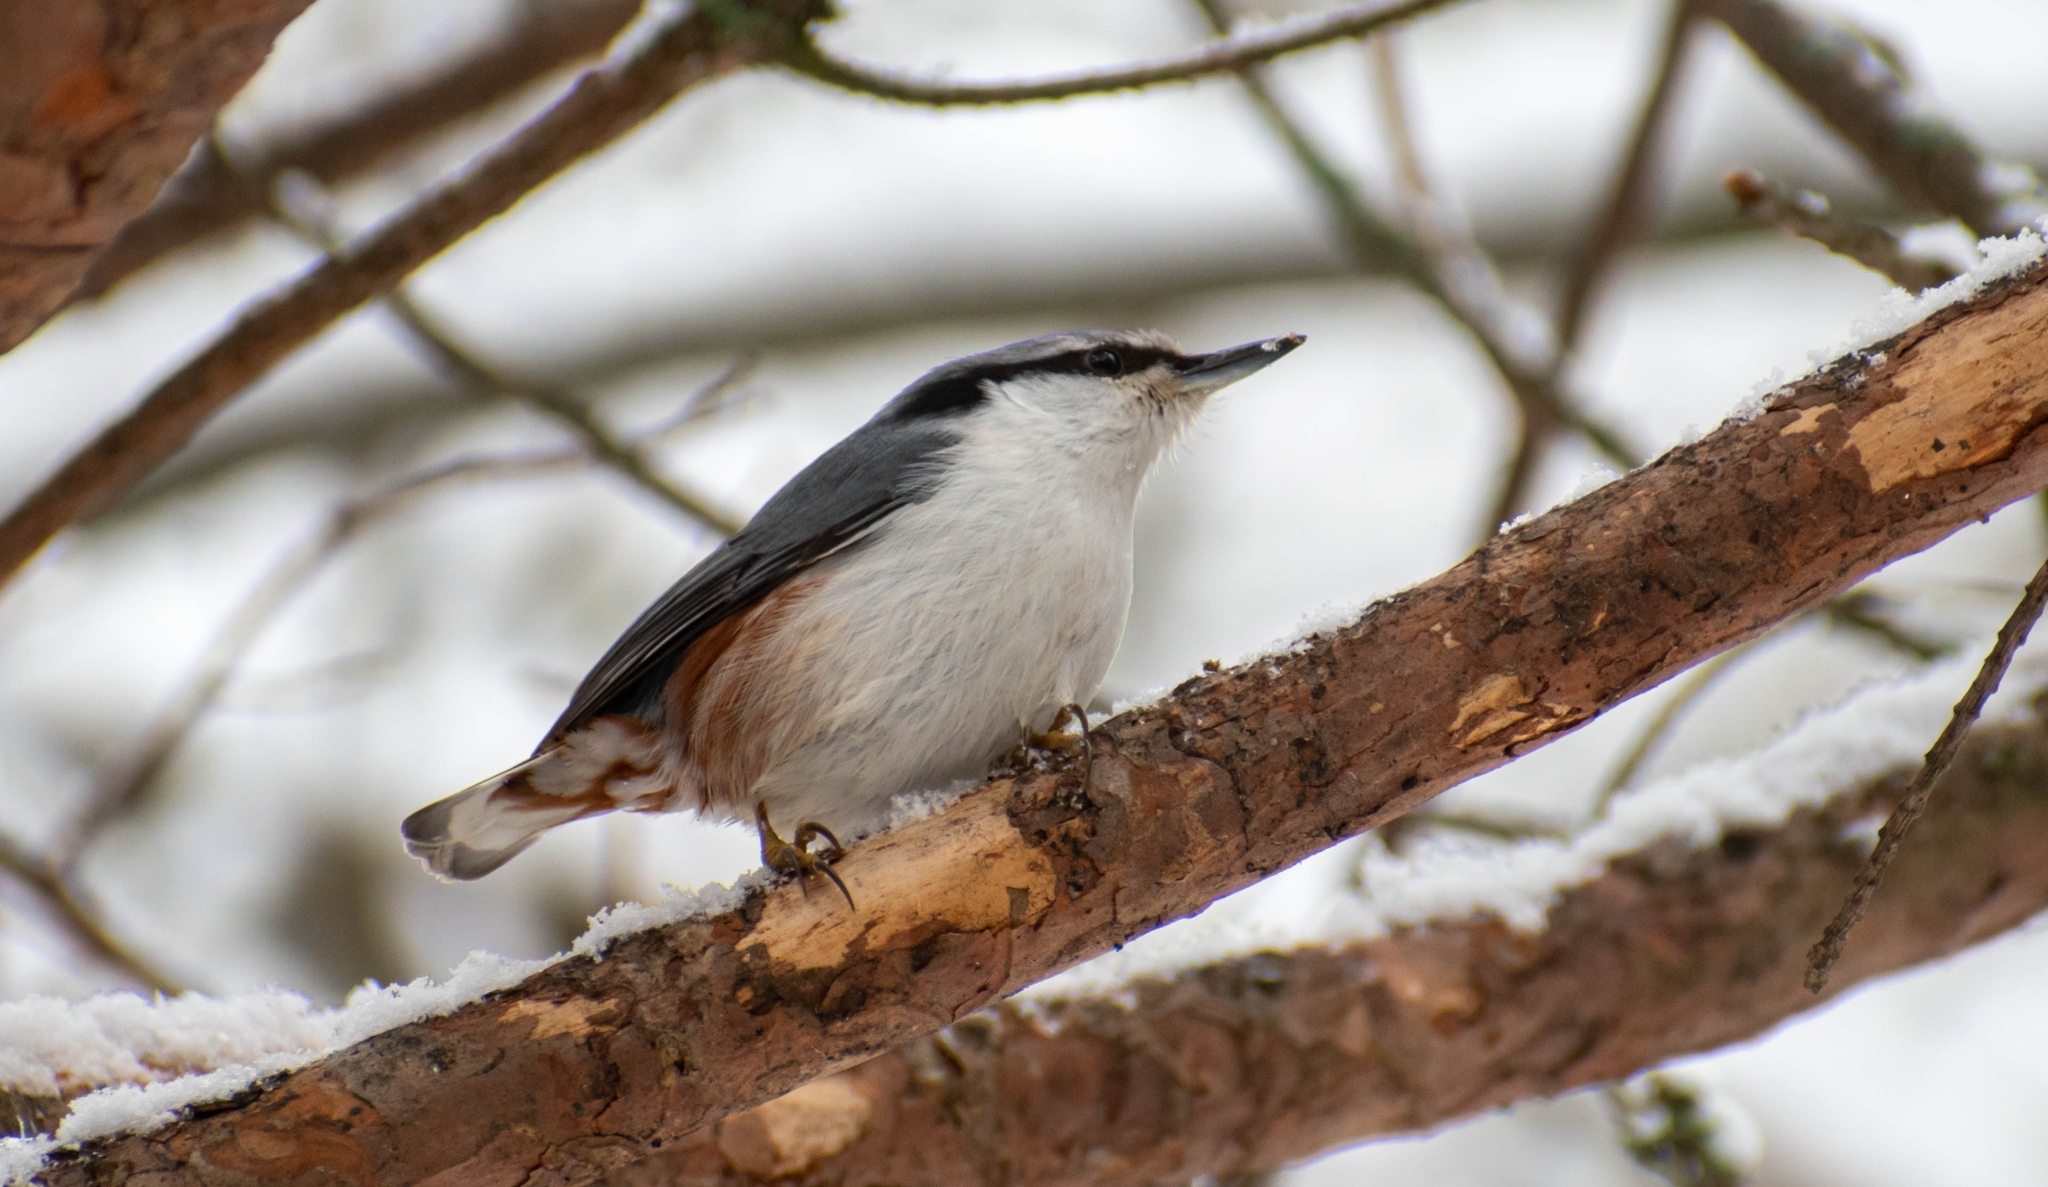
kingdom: Animalia
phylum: Chordata
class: Aves
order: Passeriformes
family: Sittidae
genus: Sitta
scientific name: Sitta europaea
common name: Eurasian nuthatch
